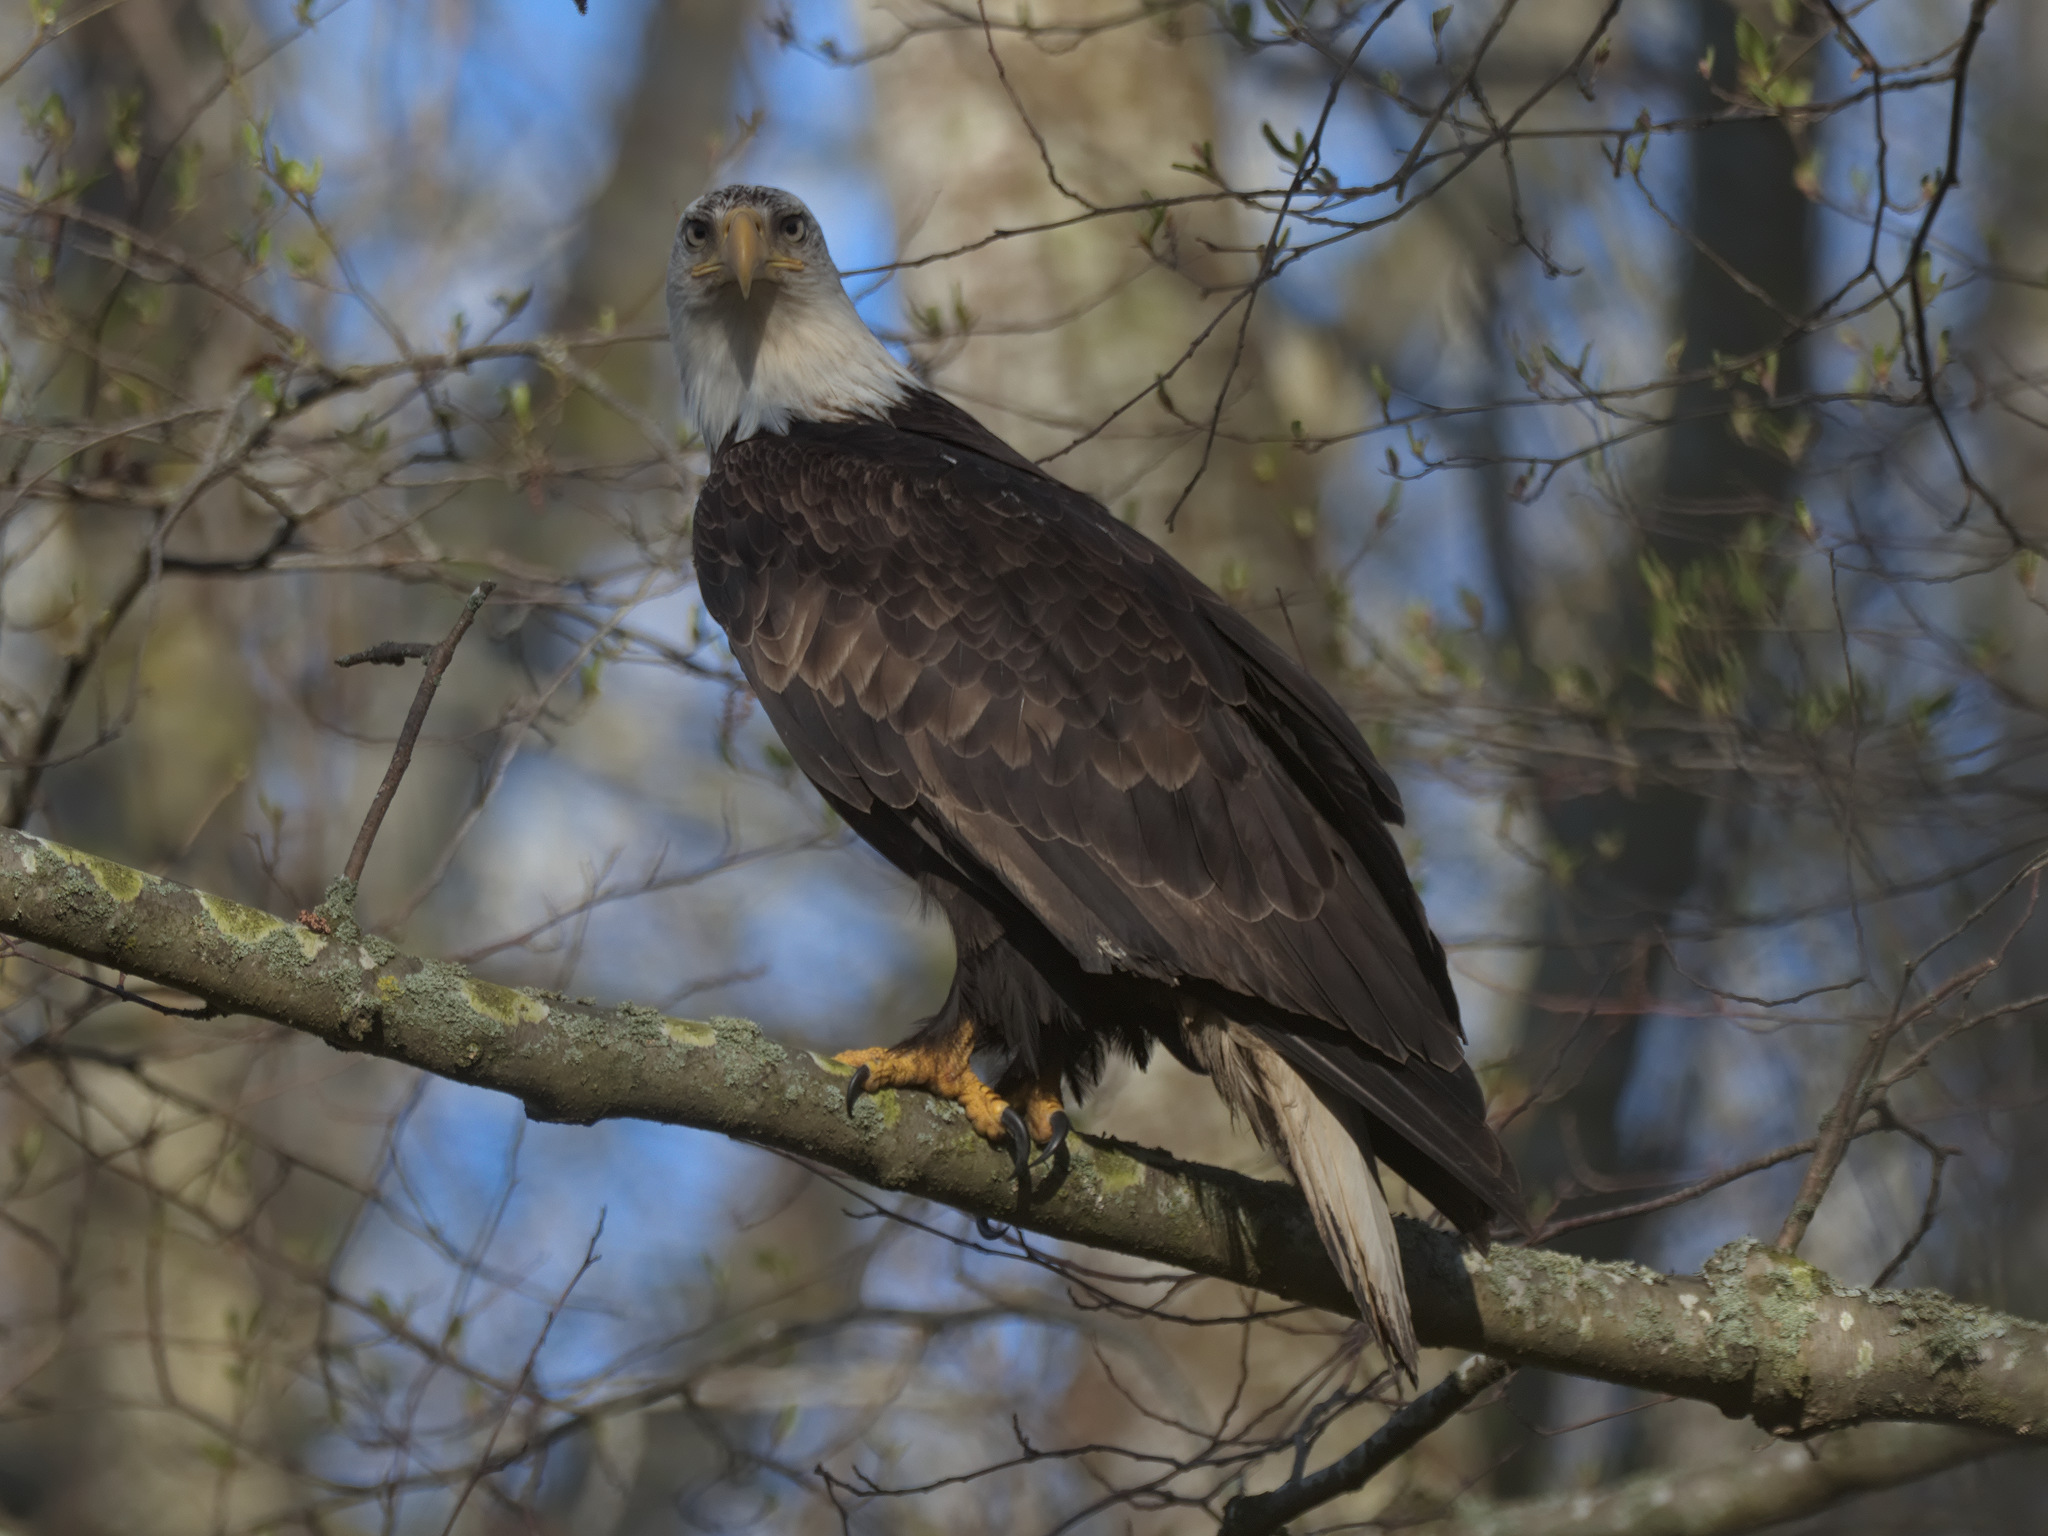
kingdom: Animalia
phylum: Chordata
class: Aves
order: Accipitriformes
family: Accipitridae
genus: Haliaeetus
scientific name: Haliaeetus leucocephalus
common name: Bald eagle
